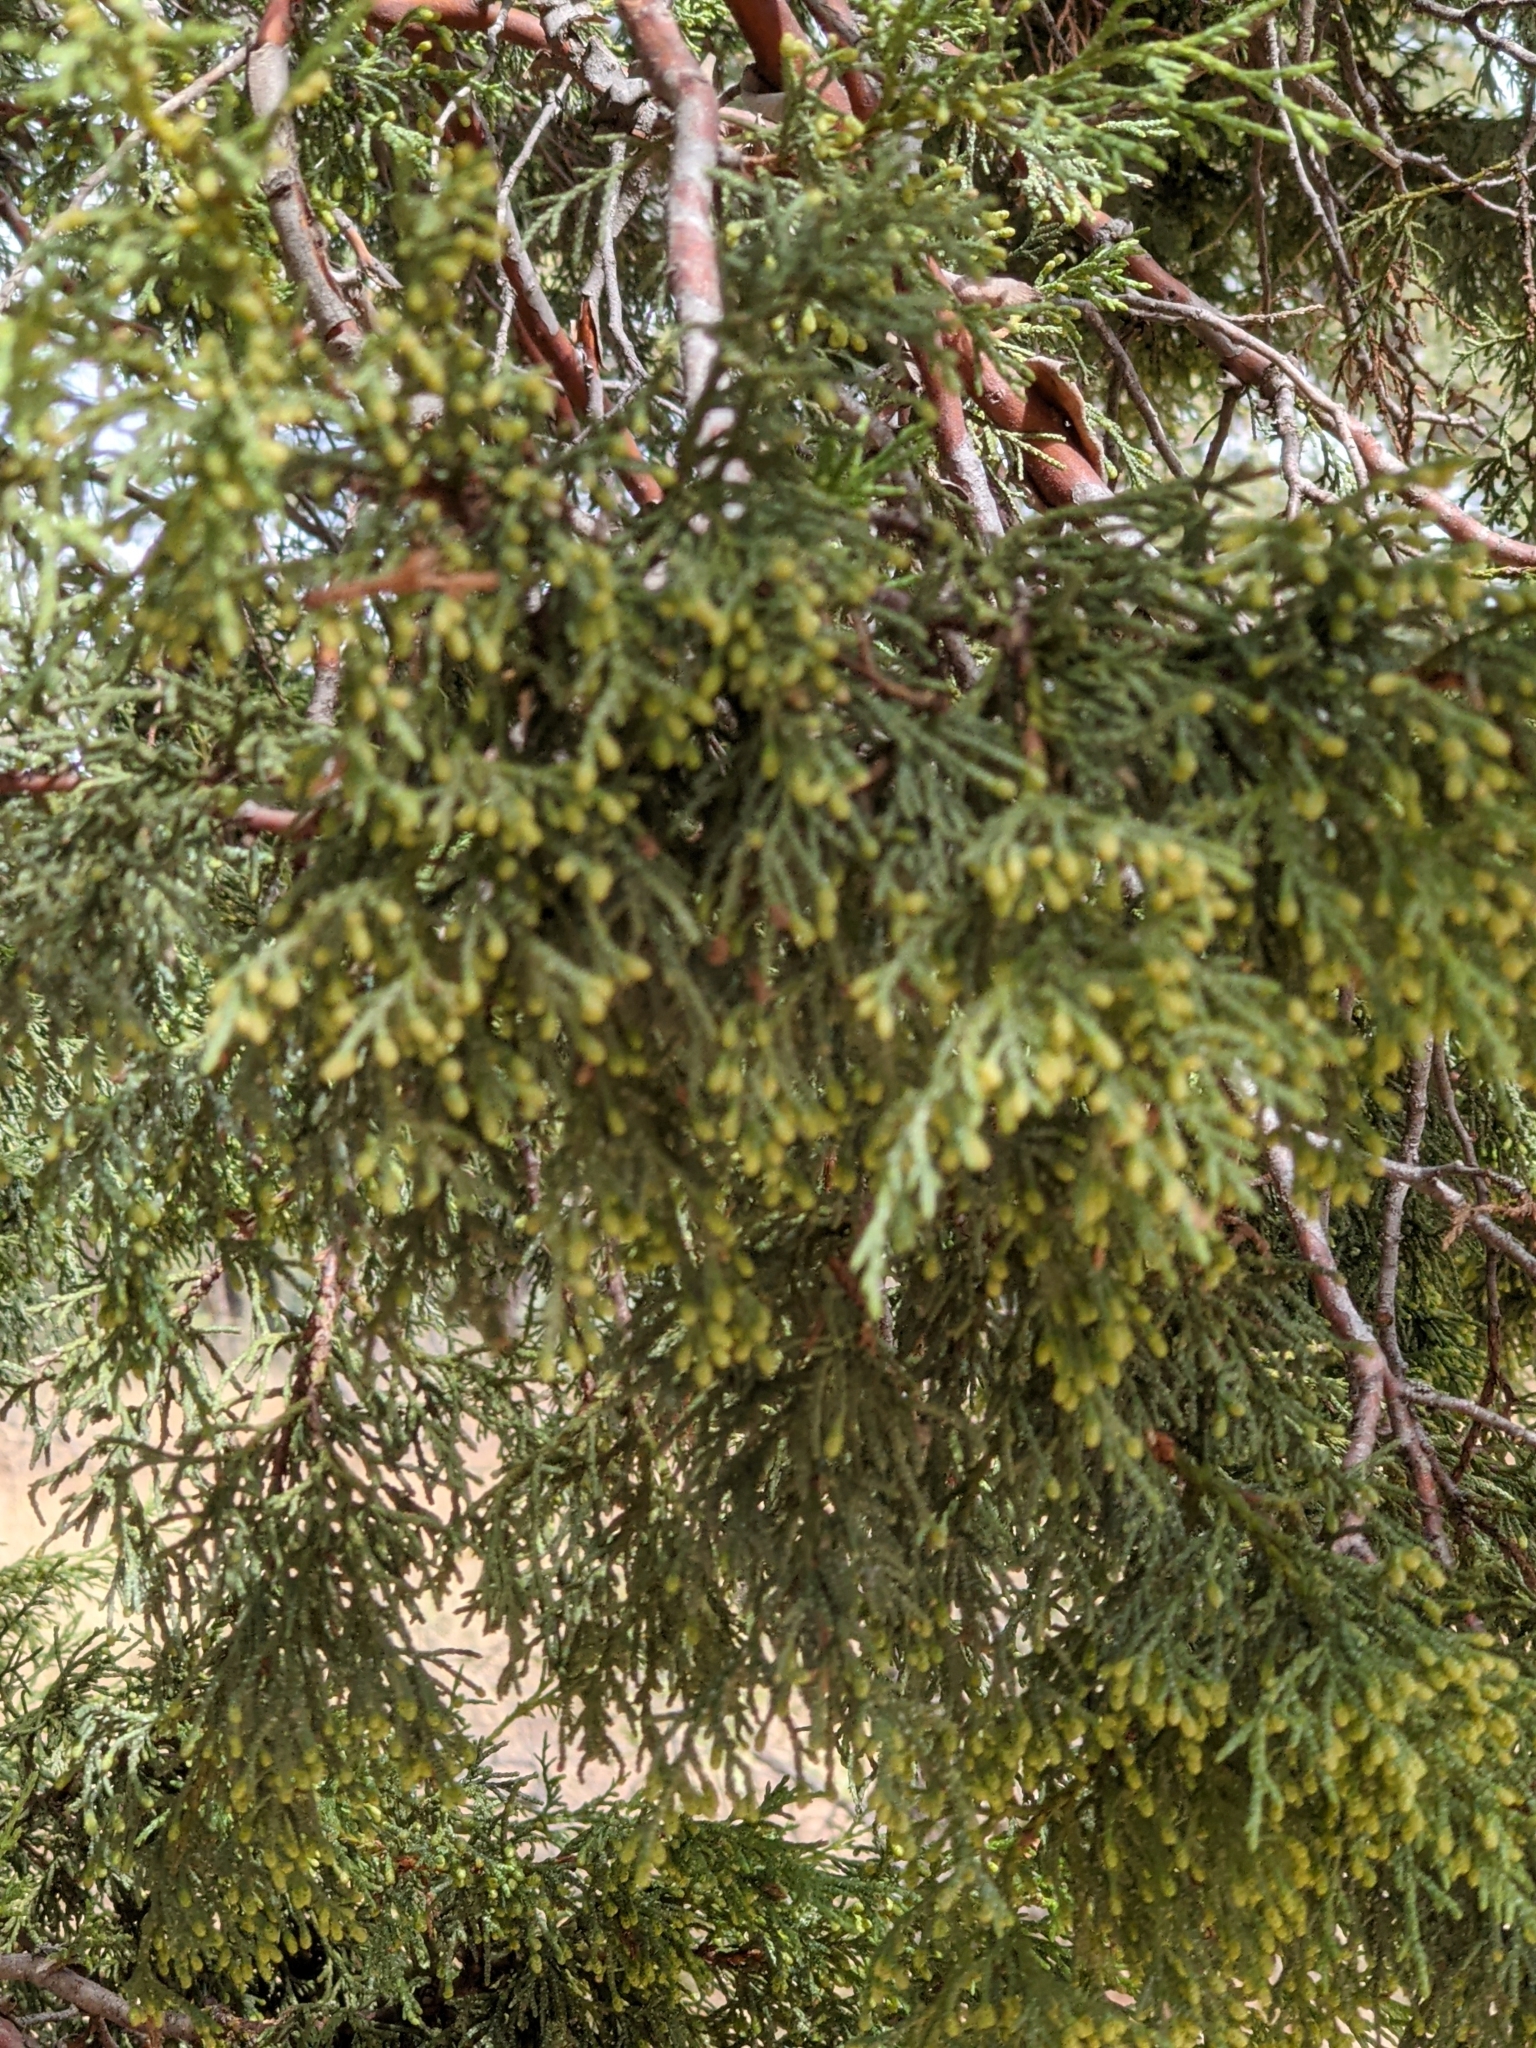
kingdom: Plantae
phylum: Tracheophyta
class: Pinopsida
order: Pinales
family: Cupressaceae
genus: Juniperus
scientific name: Juniperus deppeana
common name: Alligator juniper
